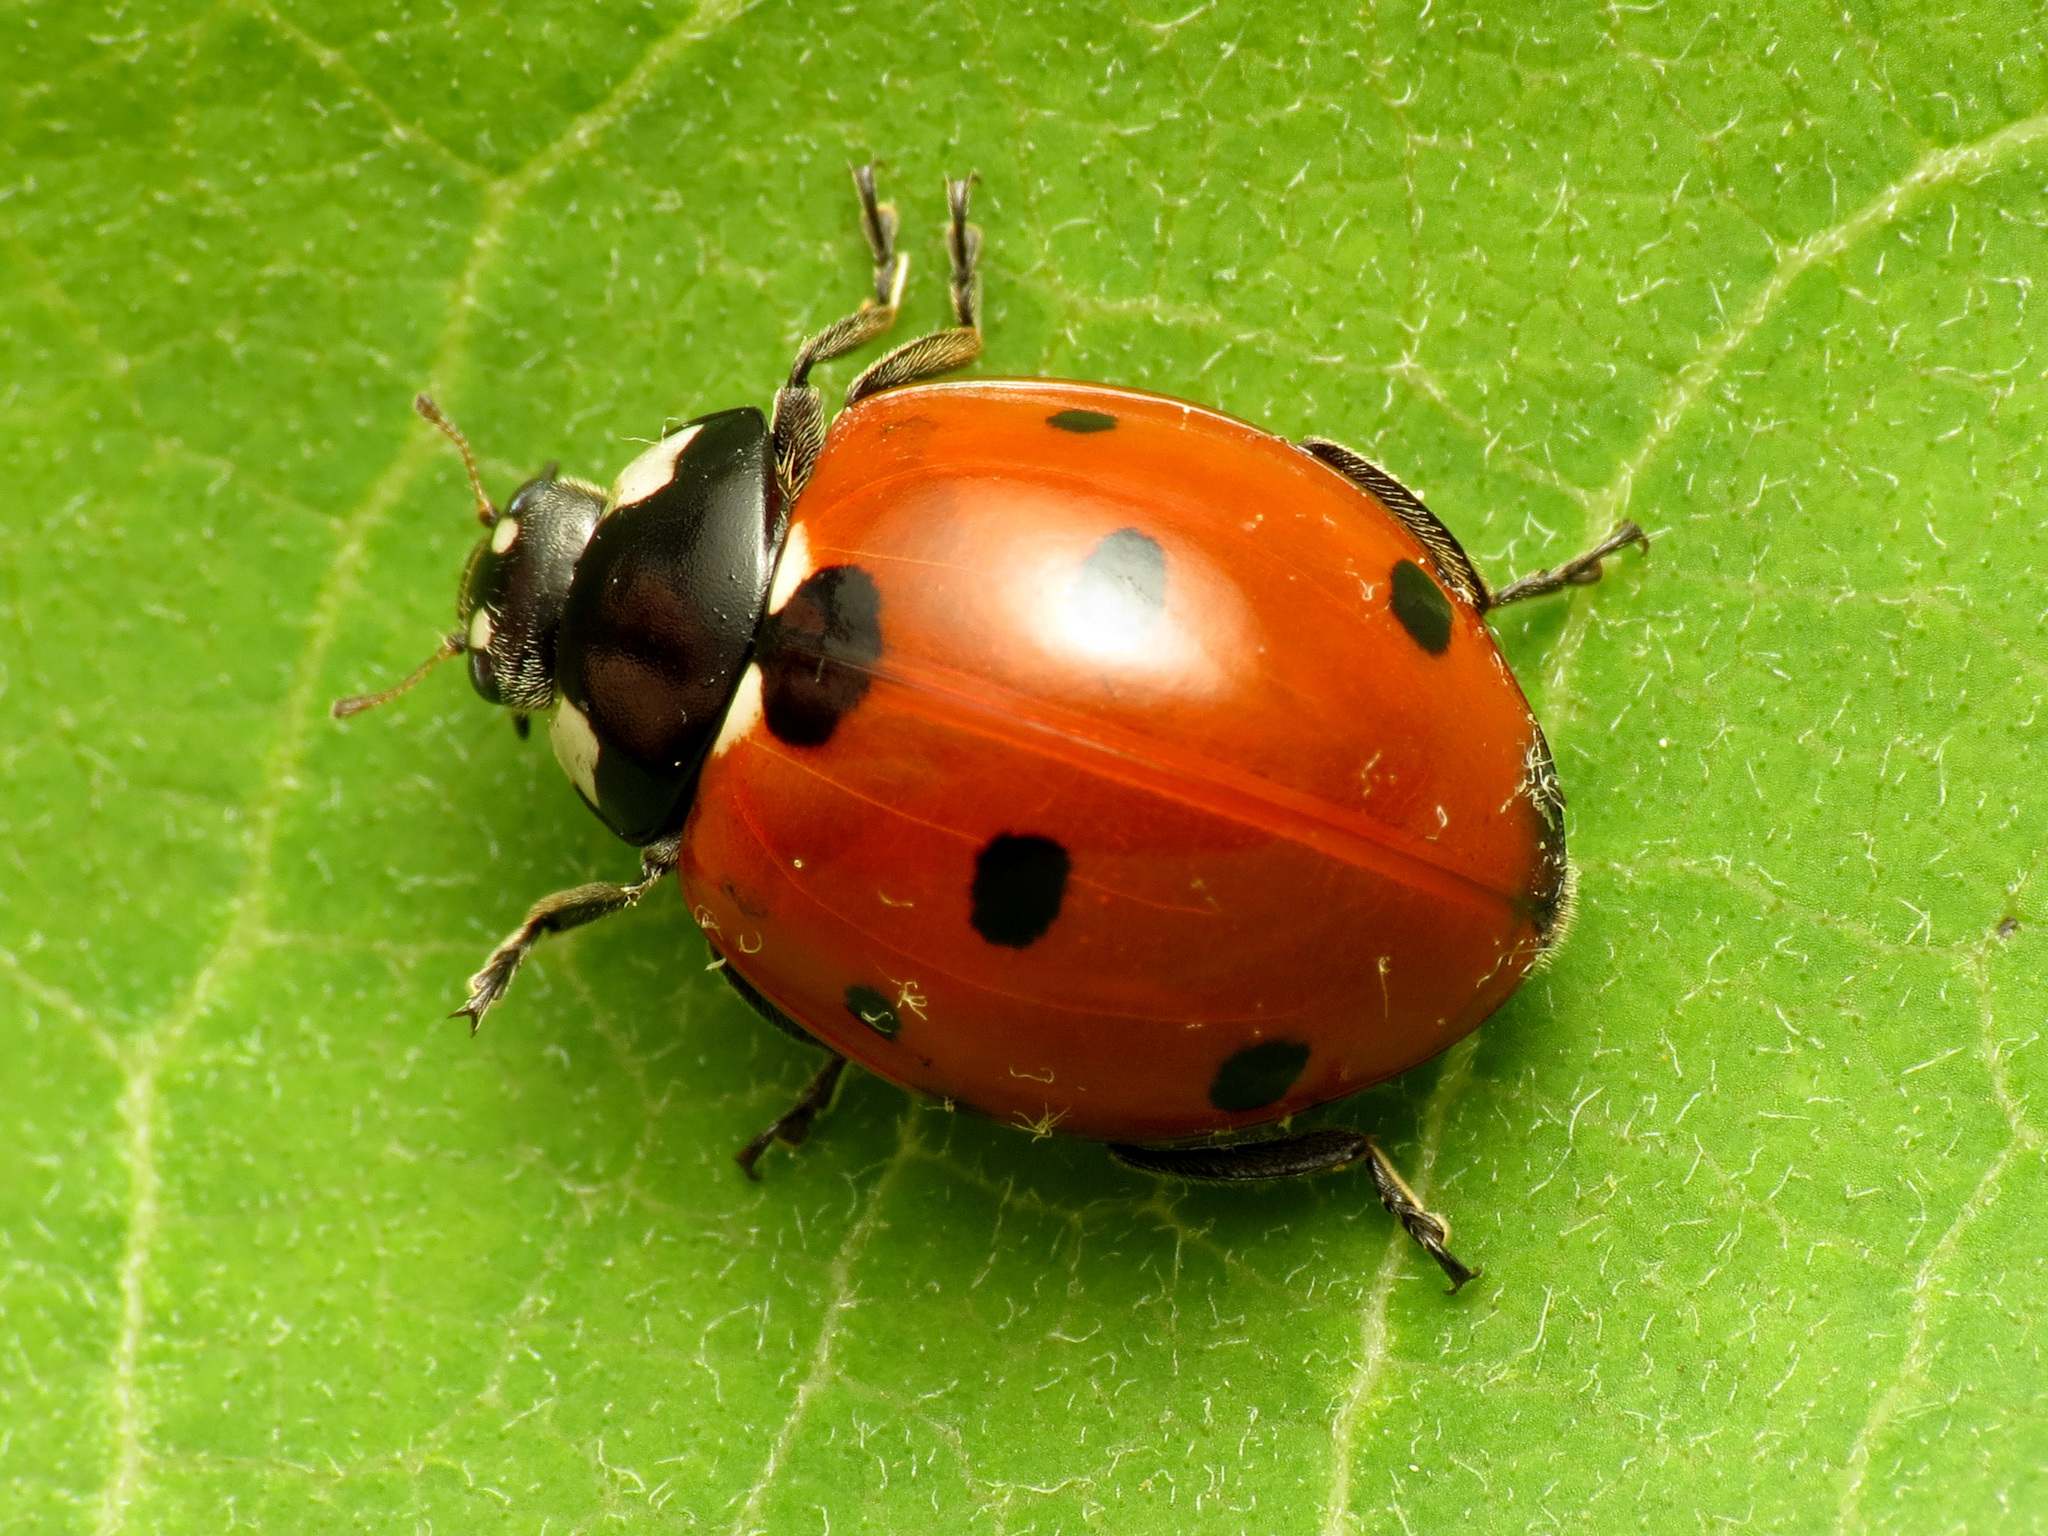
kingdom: Animalia
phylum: Arthropoda
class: Insecta
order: Coleoptera
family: Coccinellidae
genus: Coccinella
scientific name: Coccinella septempunctata
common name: Sevenspotted lady beetle
